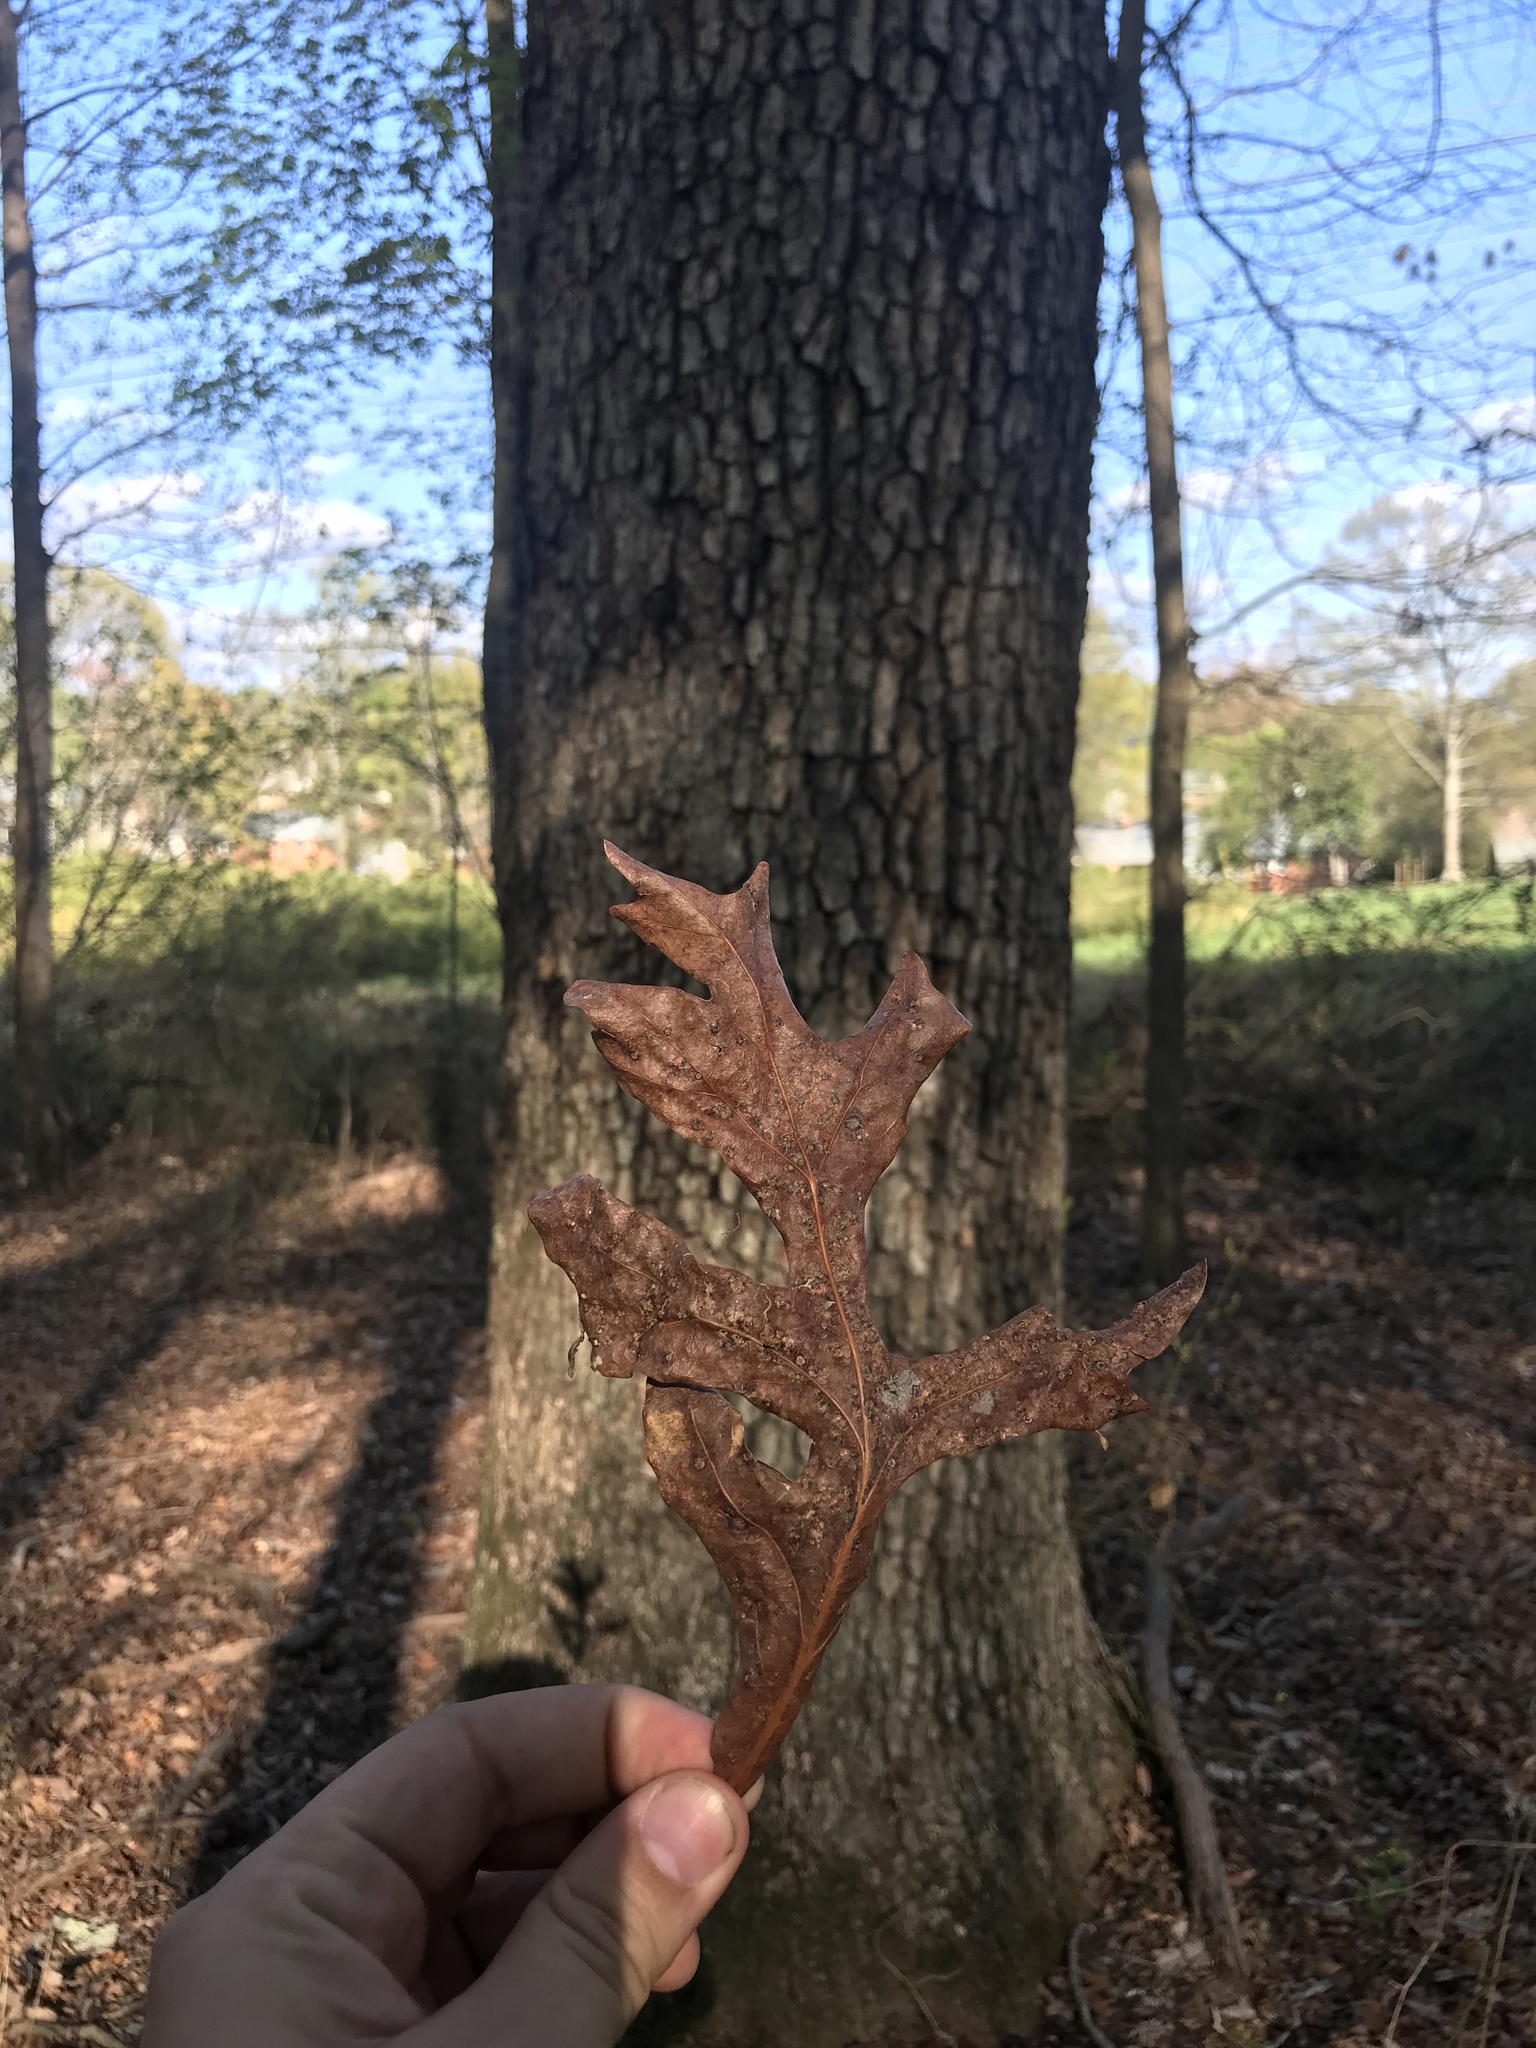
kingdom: Plantae
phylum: Tracheophyta
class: Magnoliopsida
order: Fagales
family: Fagaceae
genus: Quercus
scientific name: Quercus alba
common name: White oak
